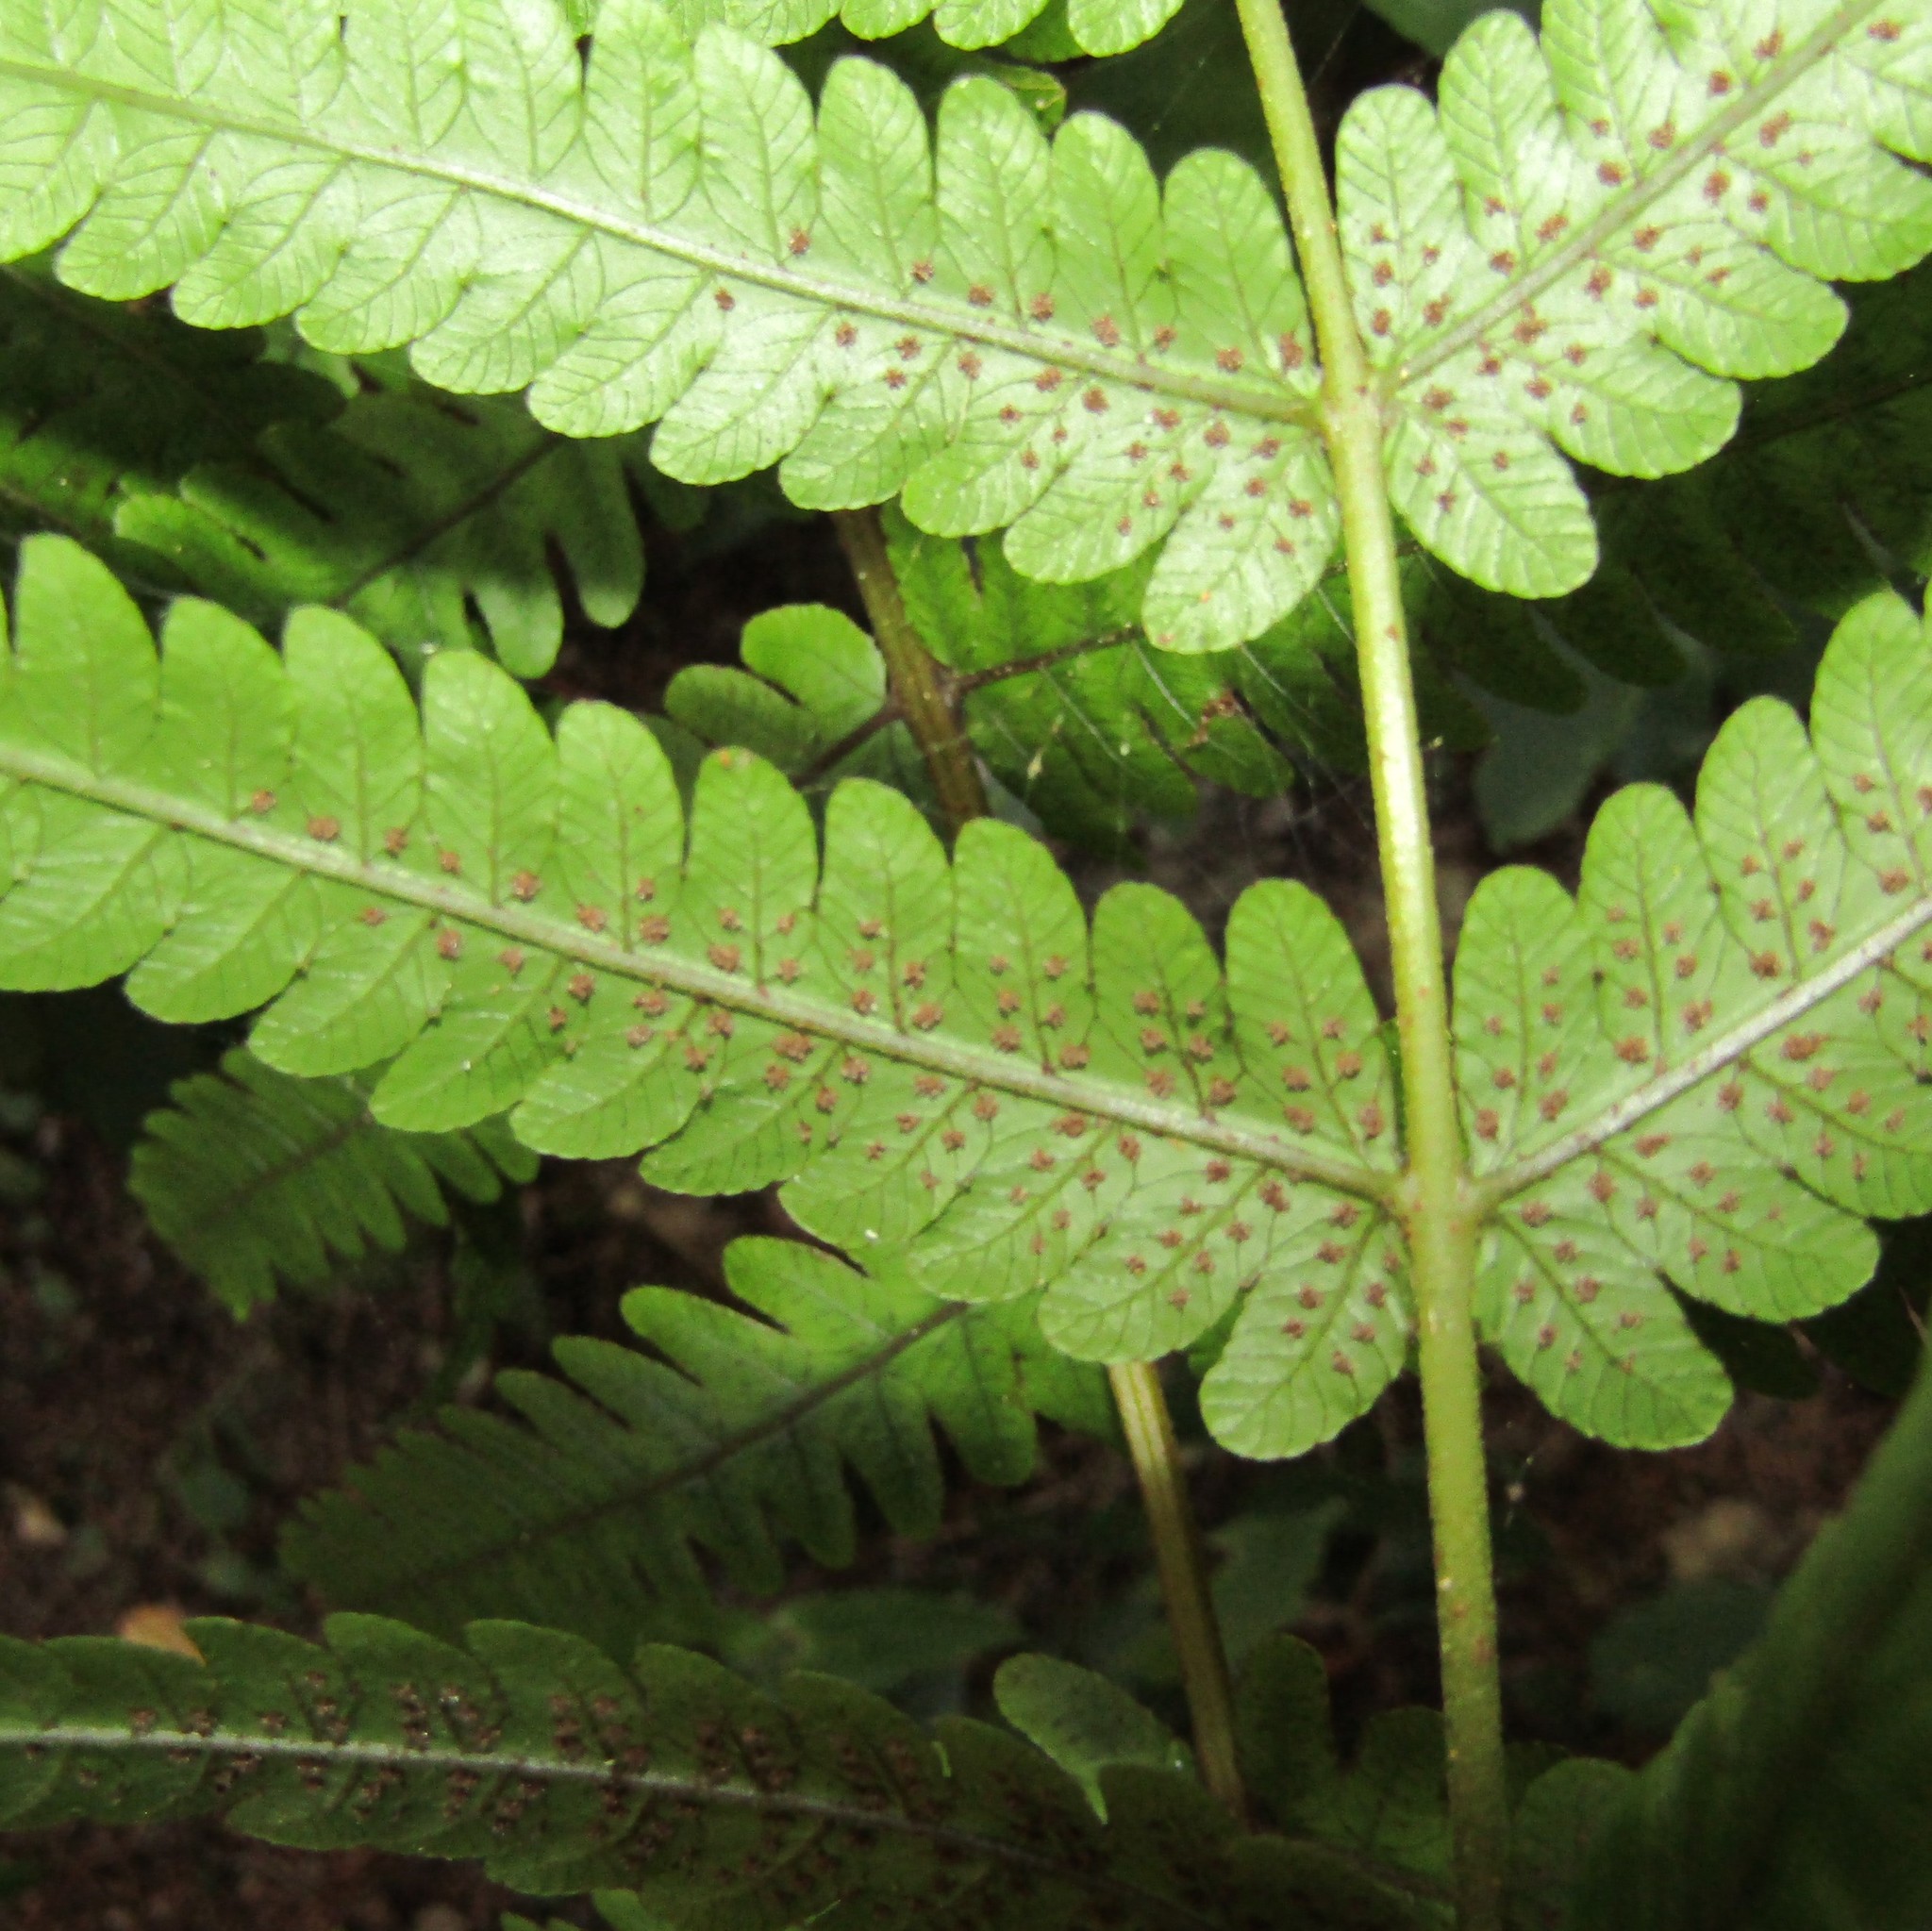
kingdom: Plantae
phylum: Tracheophyta
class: Polypodiopsida
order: Polypodiales
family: Thelypteridaceae
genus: Pakau
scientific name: Pakau pennigera
